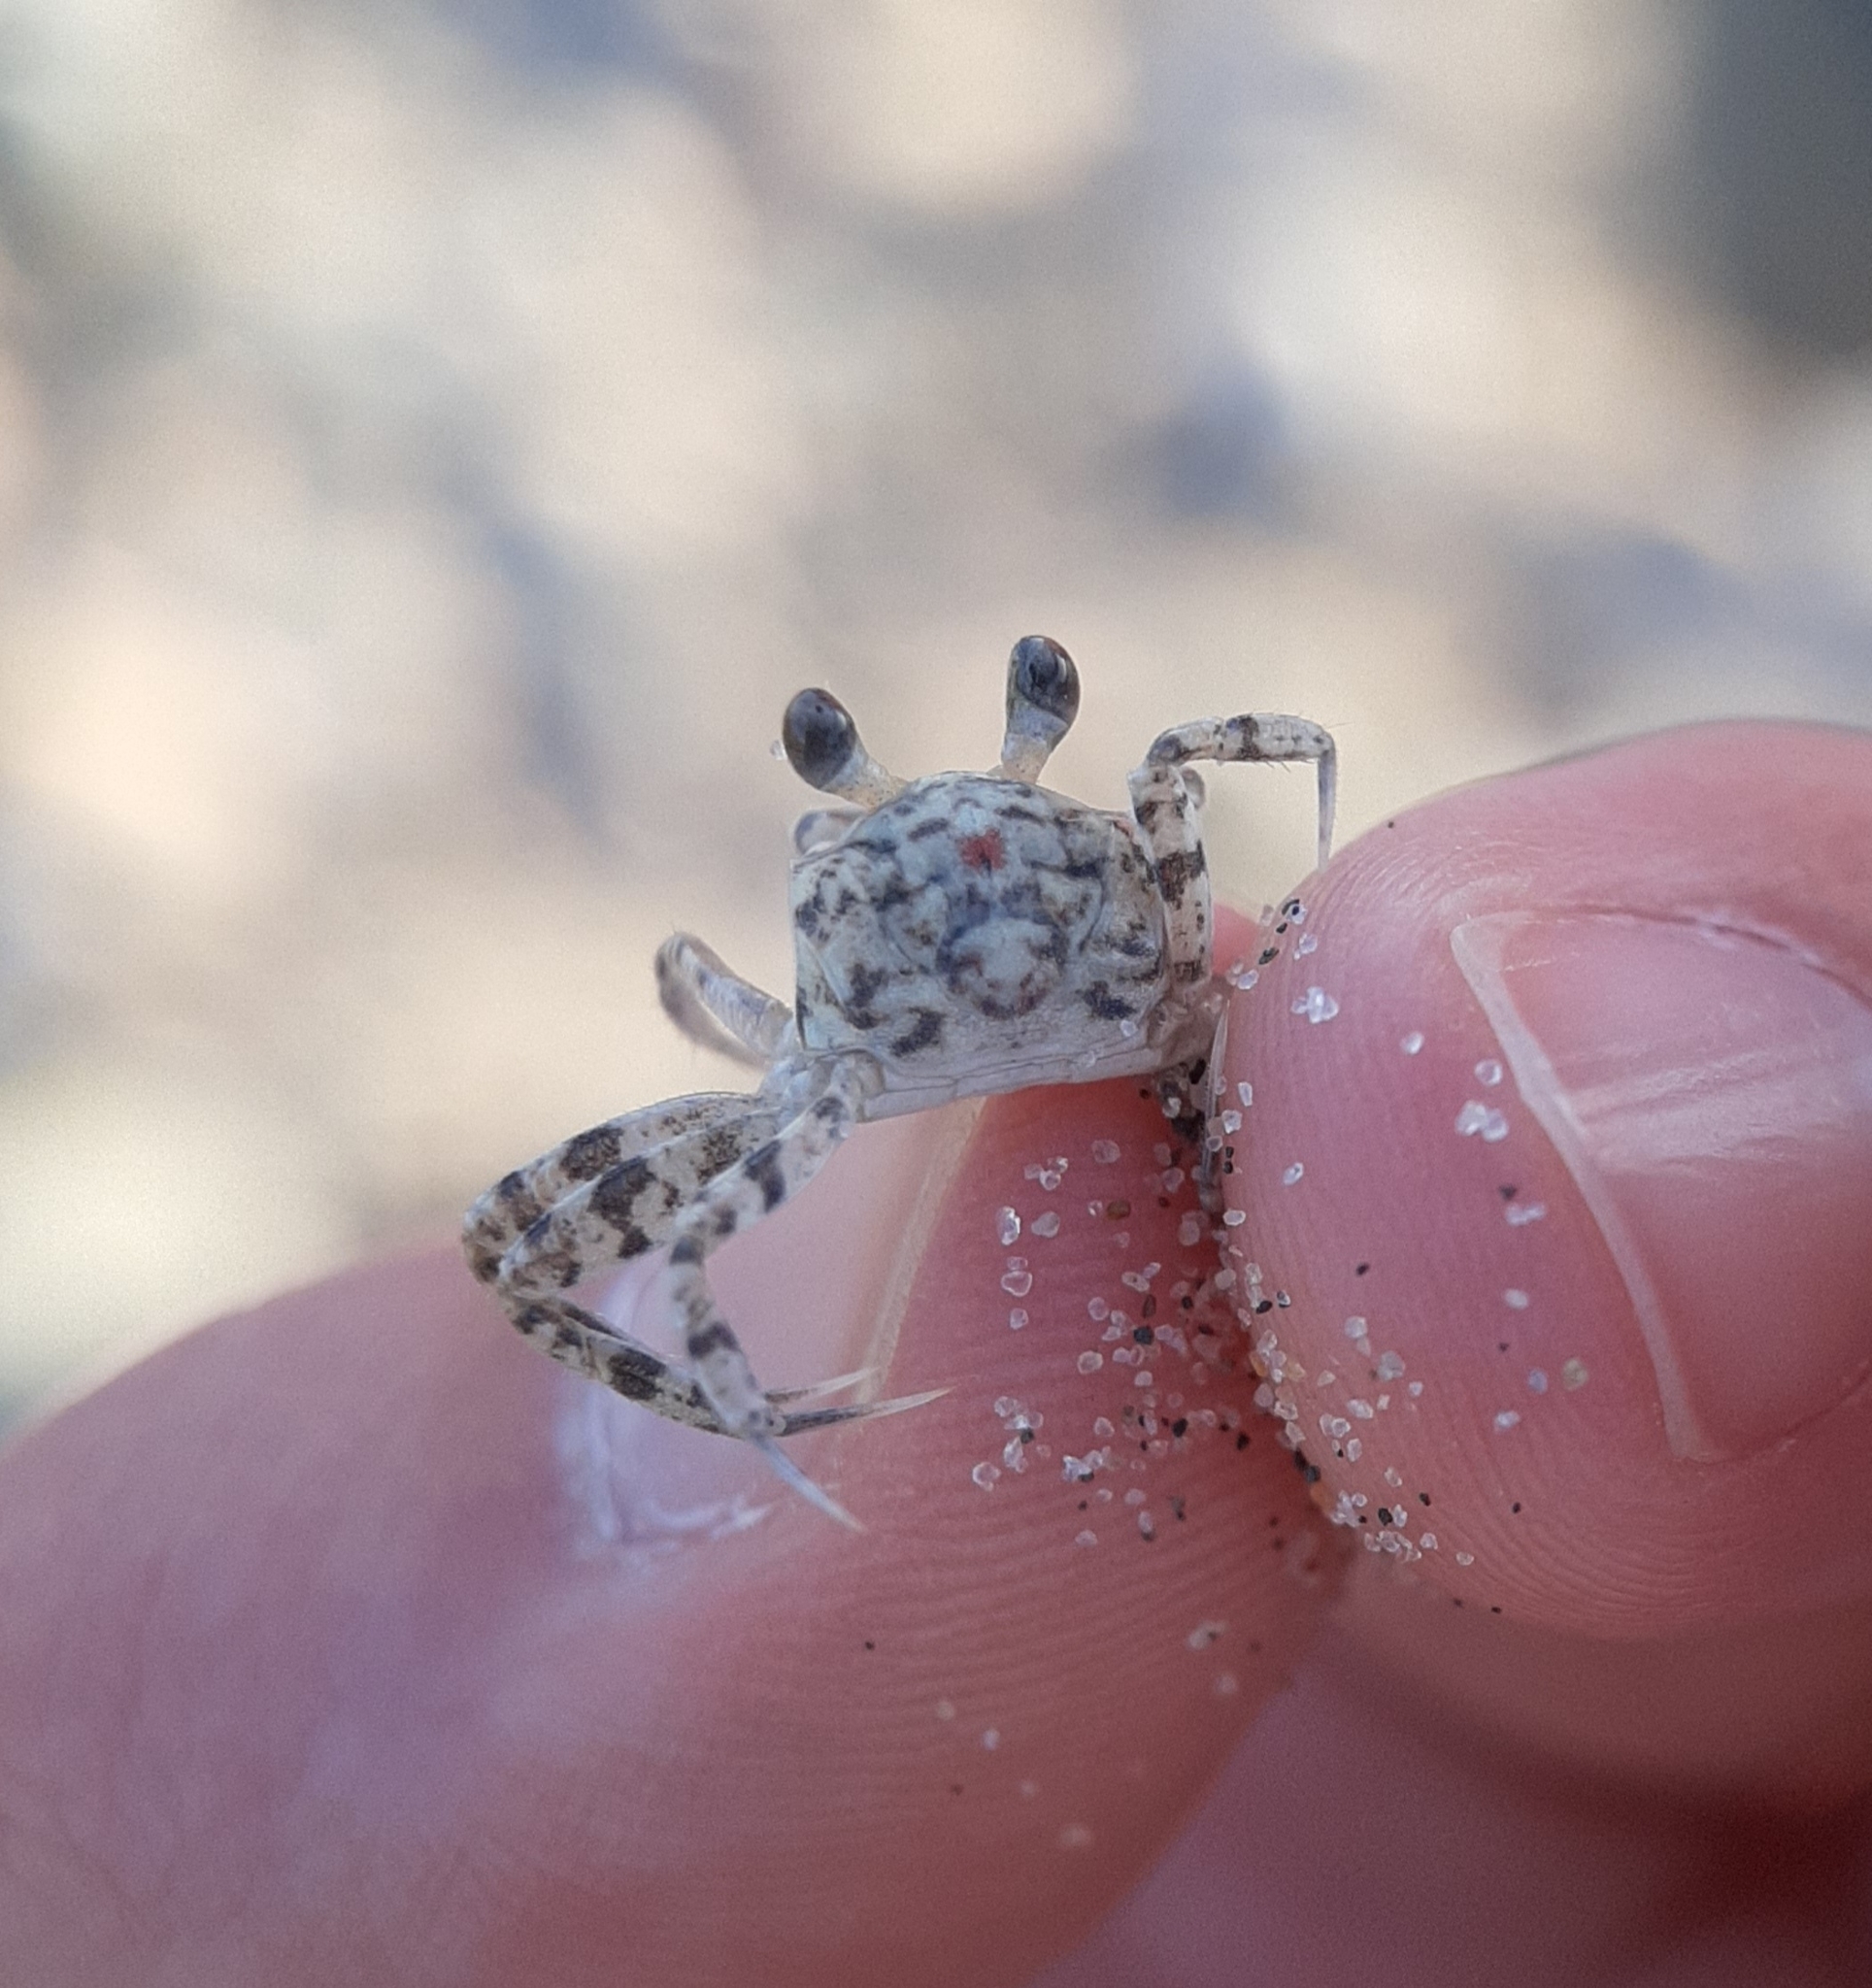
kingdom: Animalia
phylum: Arthropoda
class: Malacostraca
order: Decapoda
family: Ocypodidae
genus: Ocypode
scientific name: Ocypode quadrata
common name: Ghost crab
